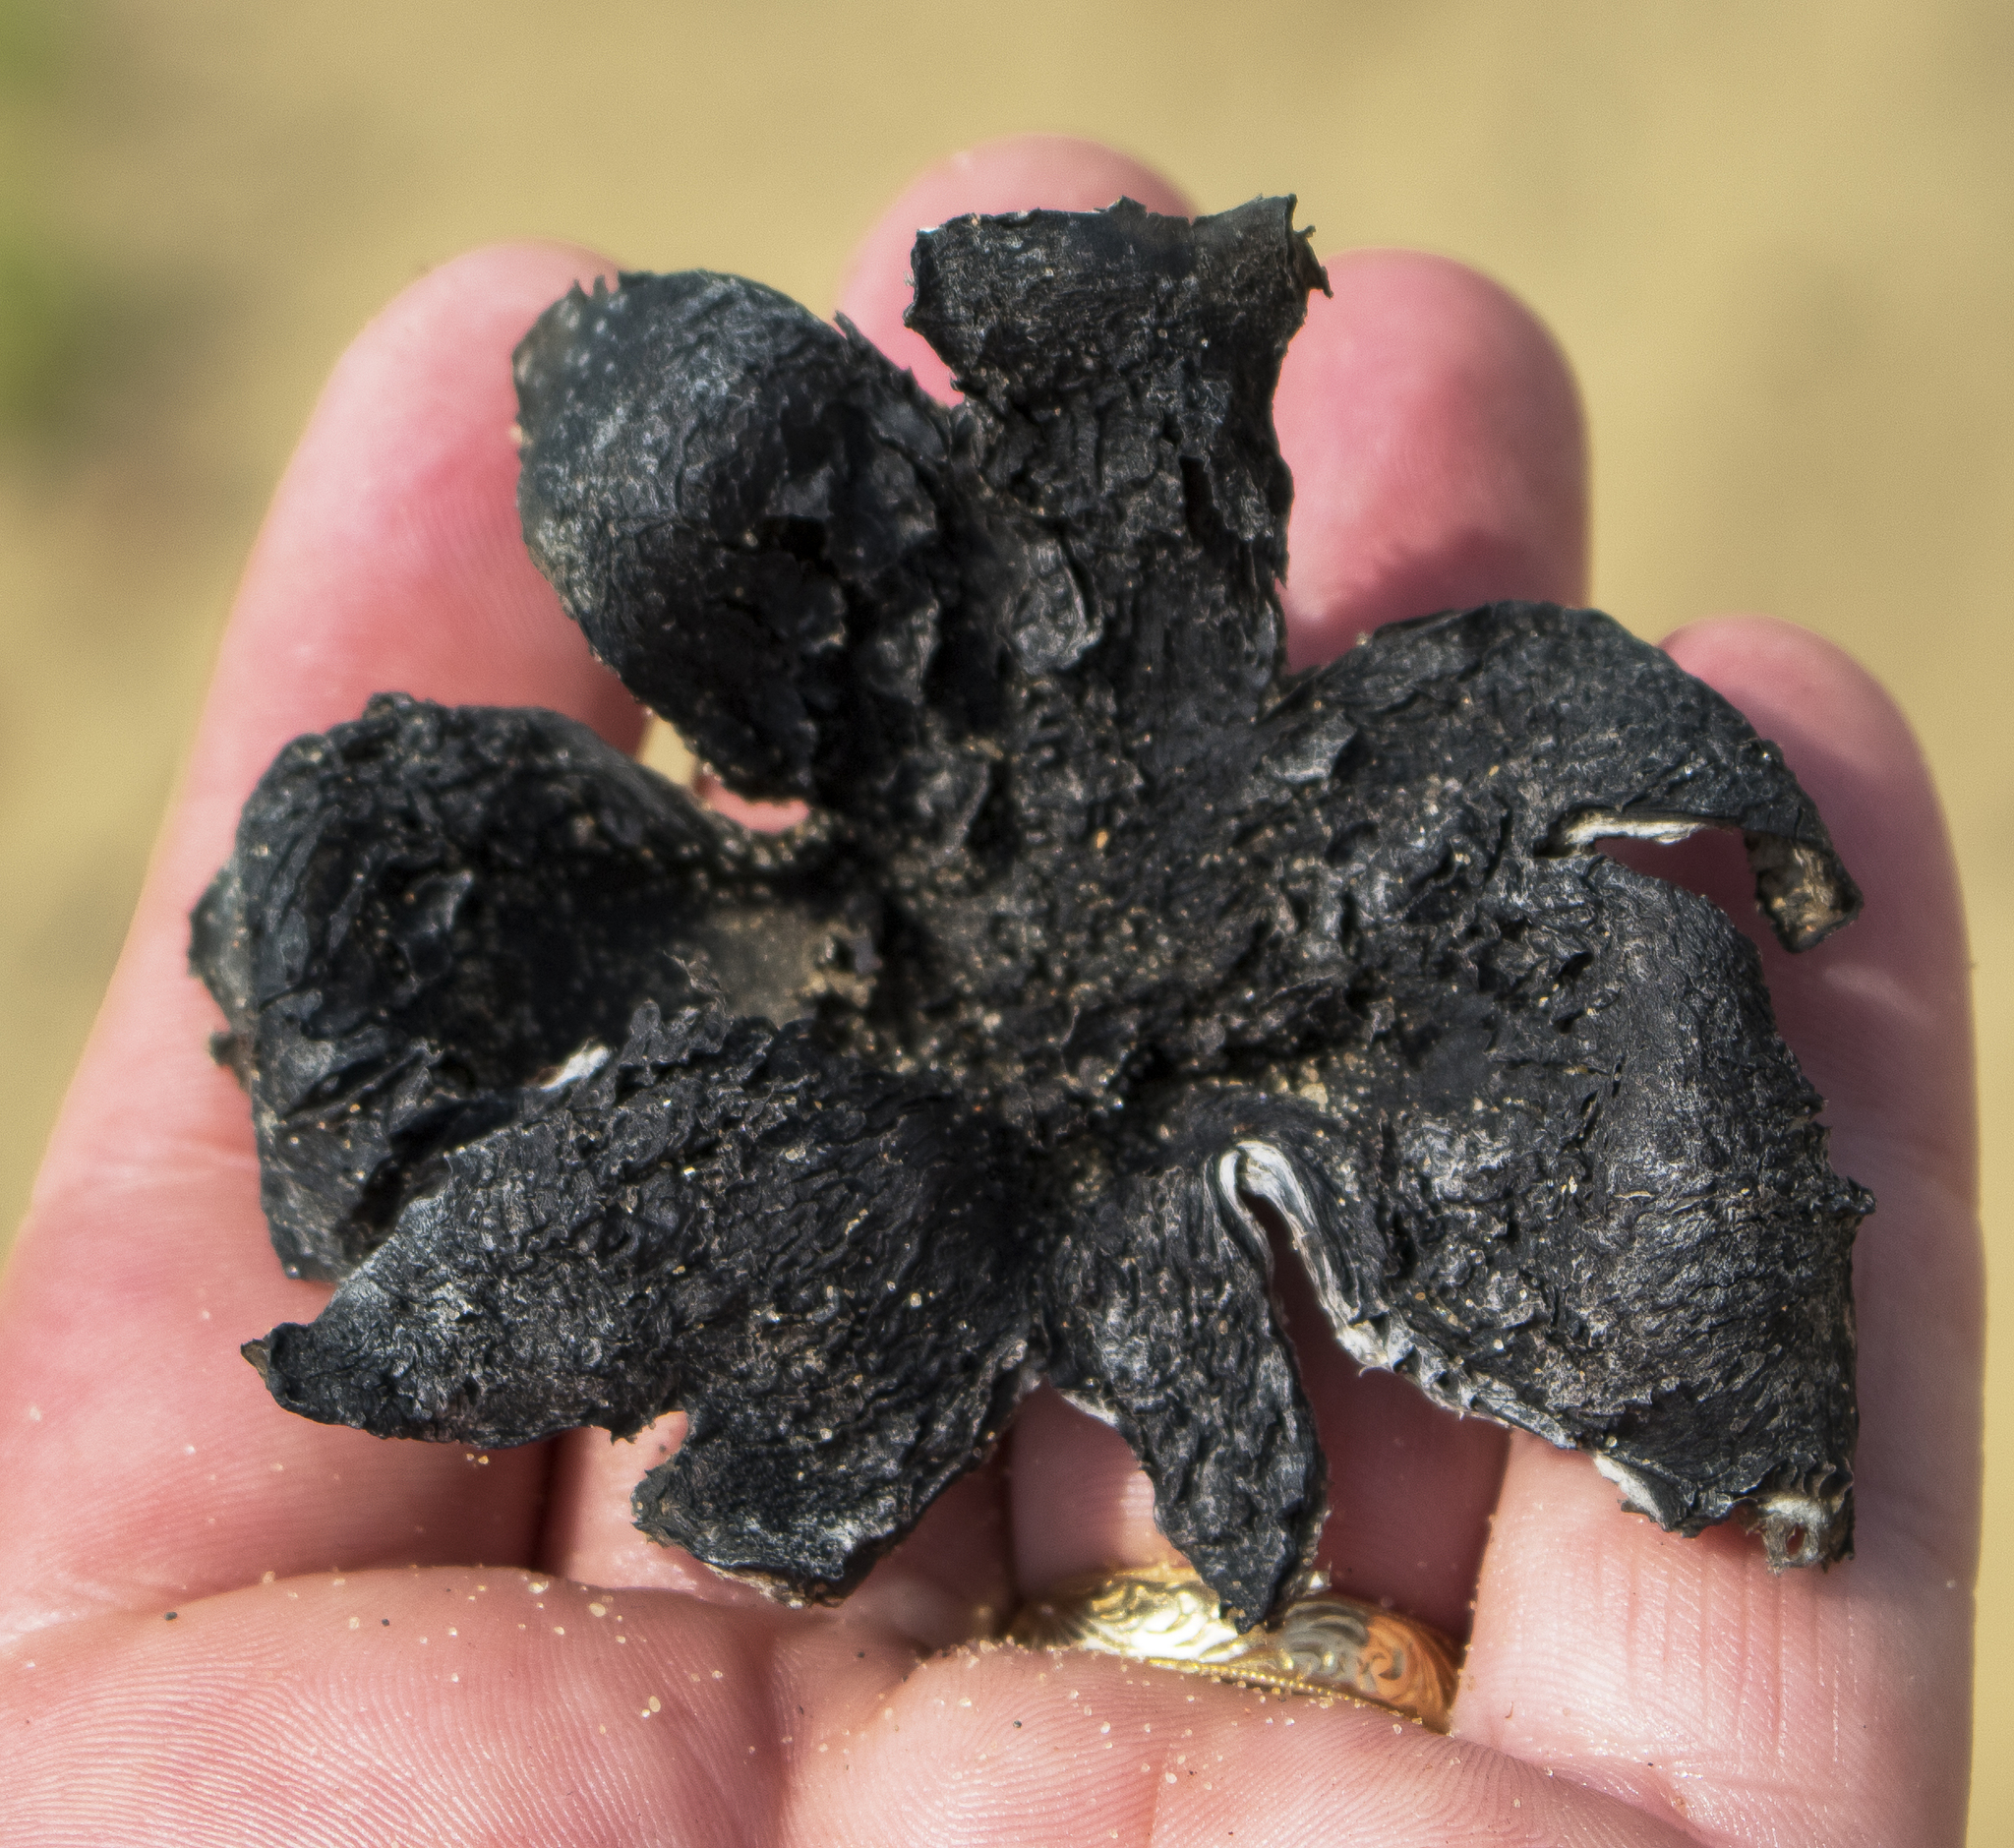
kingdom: Fungi
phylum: Basidiomycota
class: Agaricomycetes
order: Boletales
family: Sclerodermataceae
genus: Scleroderma
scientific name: Scleroderma polyrhizum
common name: Many-rooted earthball
